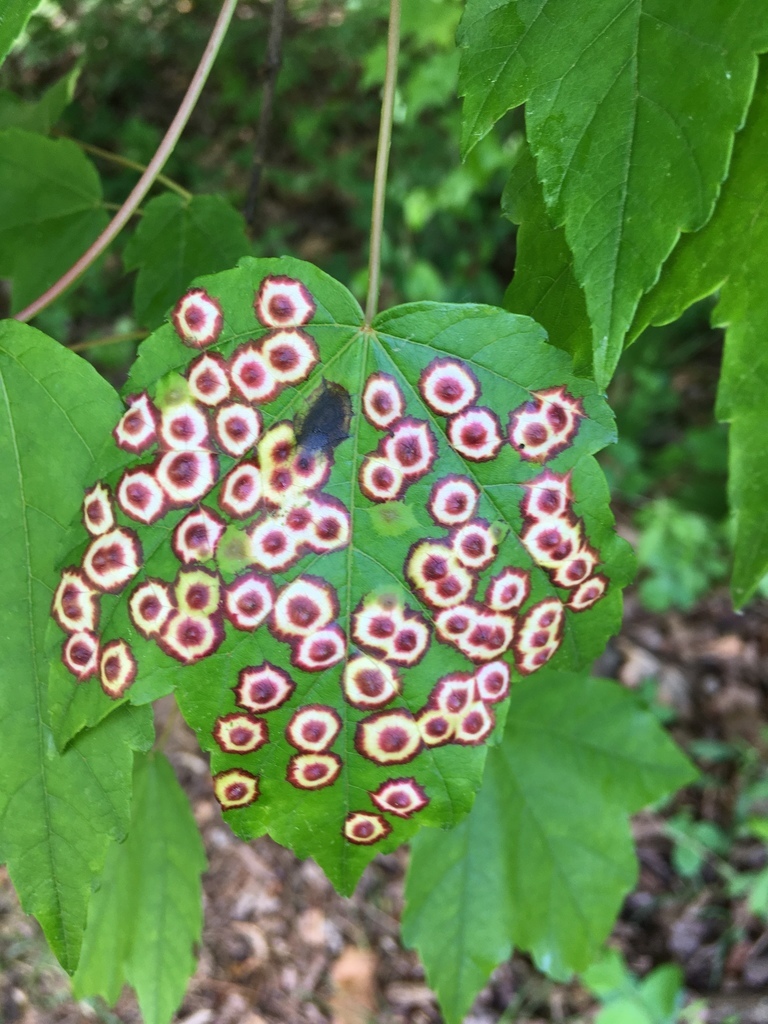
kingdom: Plantae
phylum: Tracheophyta
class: Magnoliopsida
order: Sapindales
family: Sapindaceae
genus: Acer
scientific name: Acer rubrum
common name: Red maple
